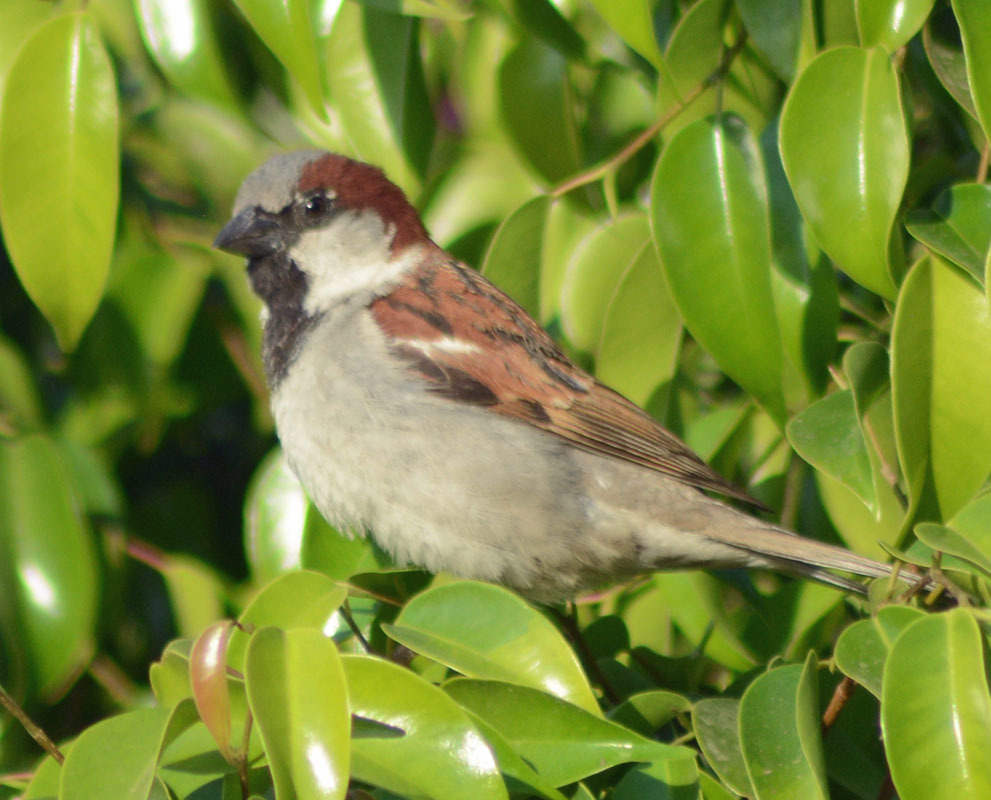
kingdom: Animalia
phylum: Chordata
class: Aves
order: Passeriformes
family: Passeridae
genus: Passer
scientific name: Passer domesticus
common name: House sparrow
